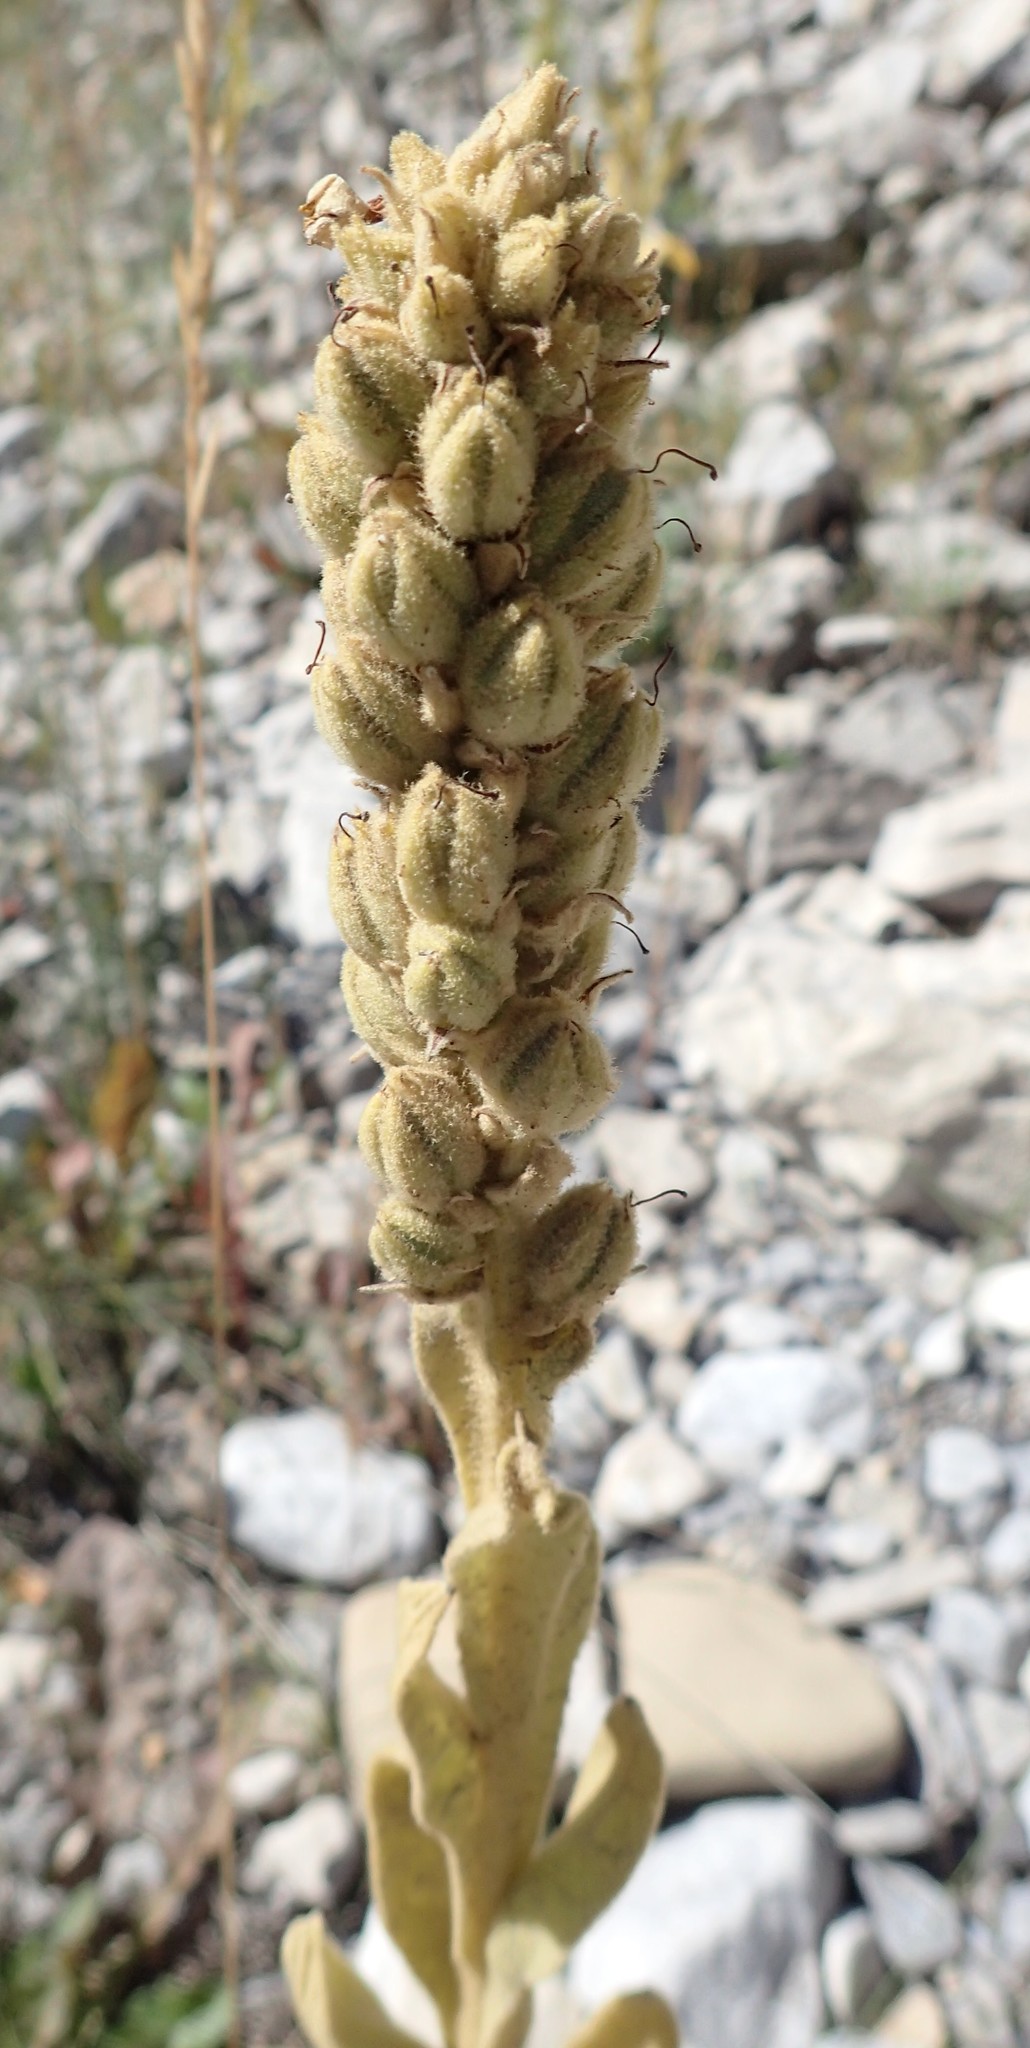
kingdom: Plantae
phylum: Tracheophyta
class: Magnoliopsida
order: Lamiales
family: Scrophulariaceae
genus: Verbascum
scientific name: Verbascum thapsus
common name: Common mullein
